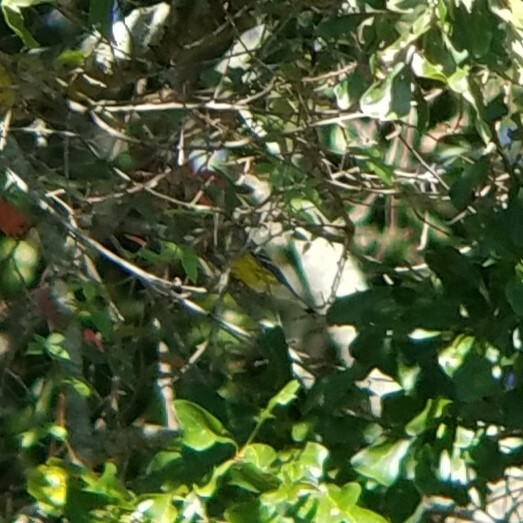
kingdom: Animalia
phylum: Chordata
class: Aves
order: Passeriformes
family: Parulidae
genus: Setophaga
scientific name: Setophaga magnolia
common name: Magnolia warbler
